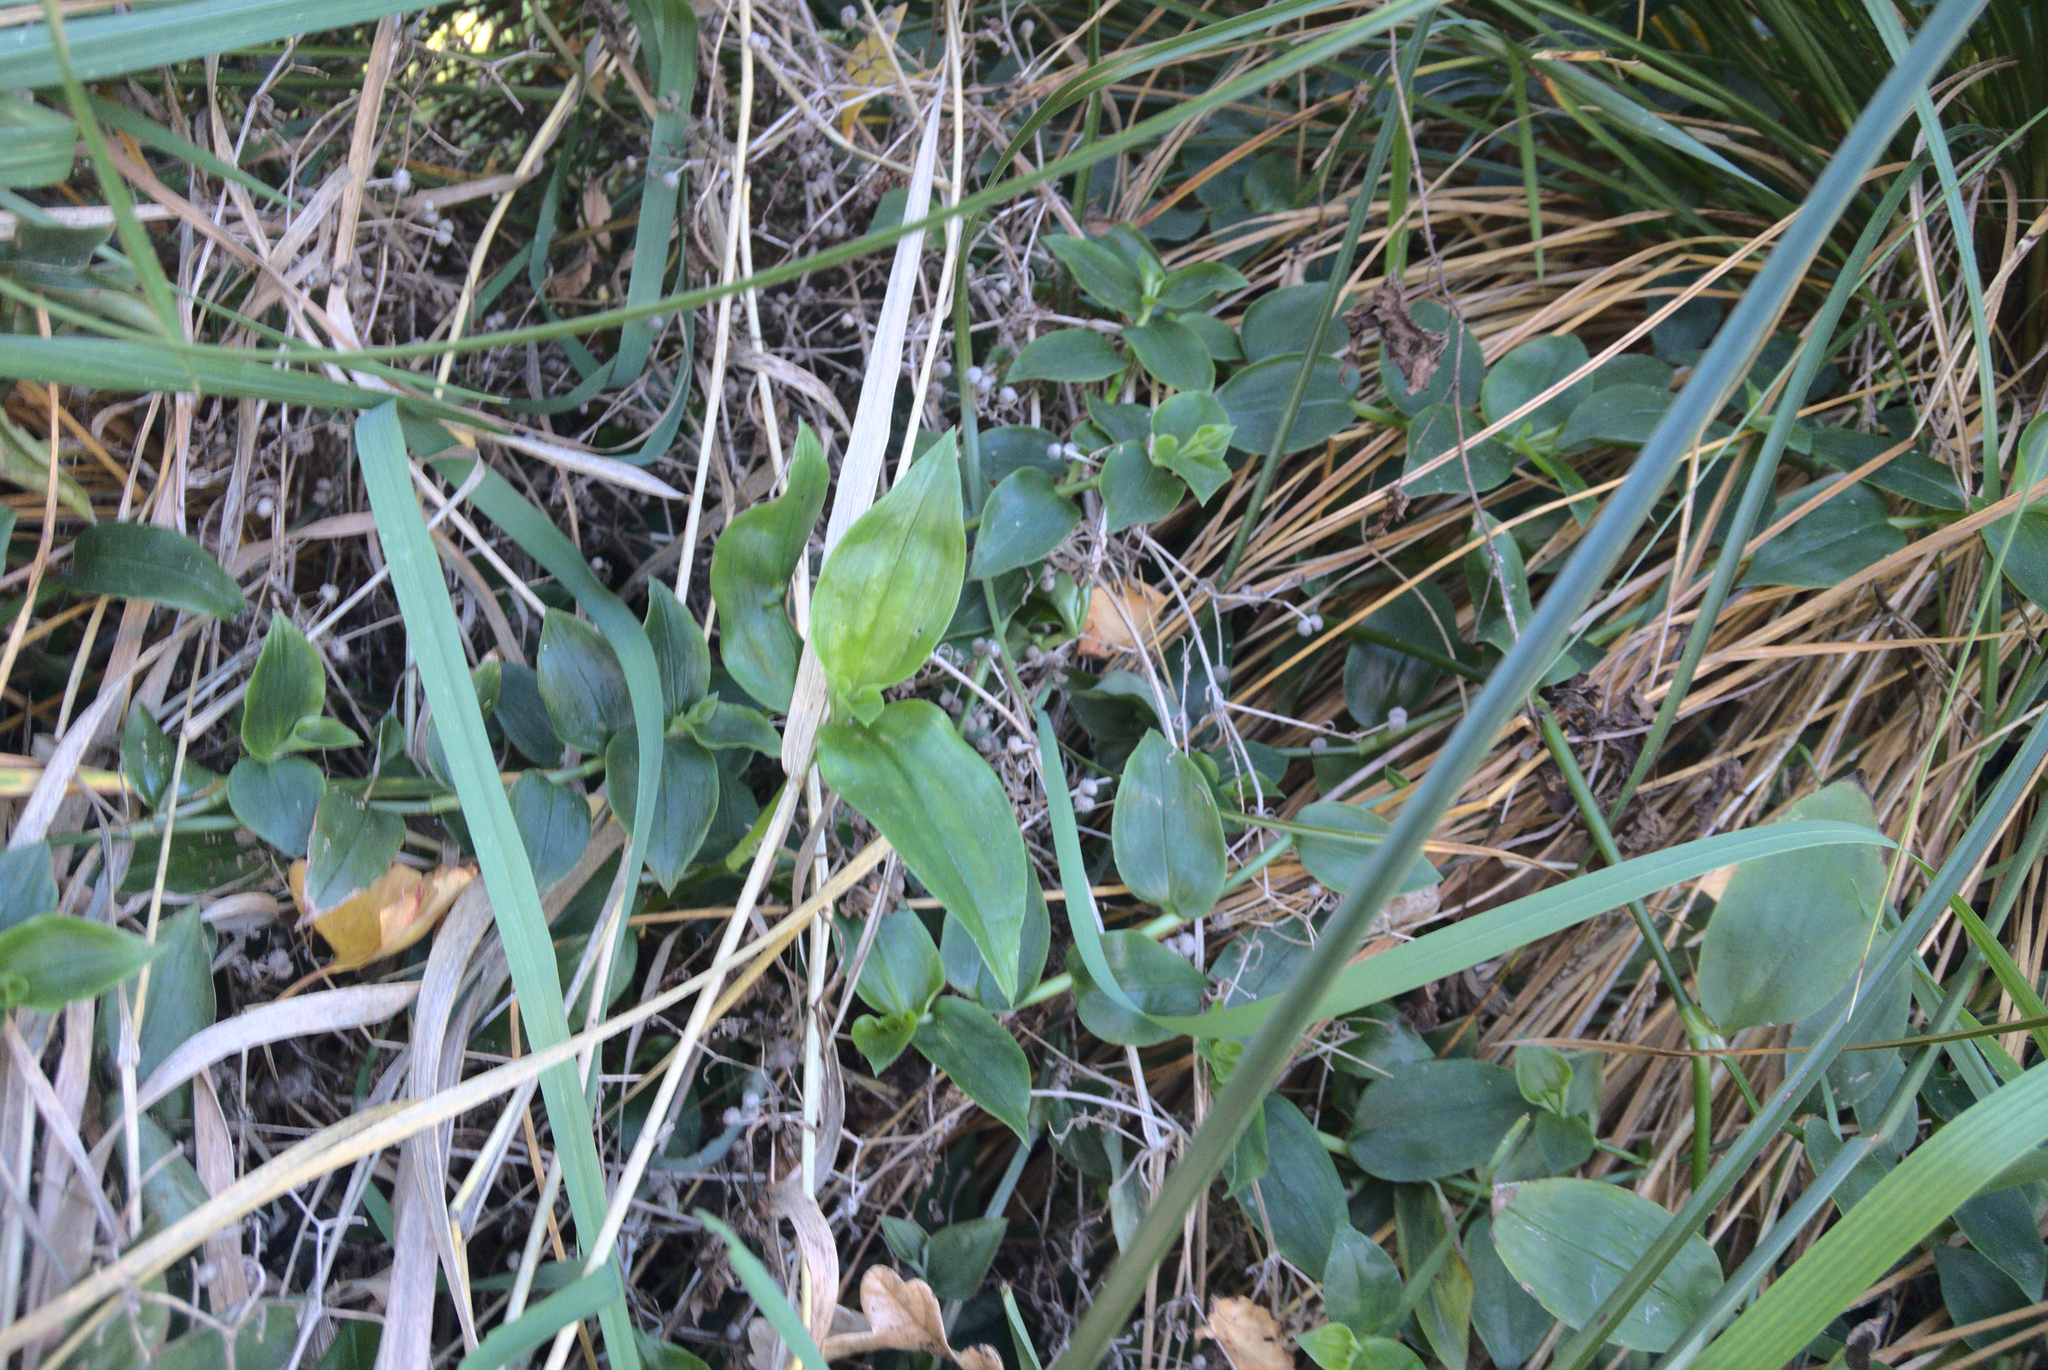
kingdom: Plantae
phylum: Tracheophyta
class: Liliopsida
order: Commelinales
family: Commelinaceae
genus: Tradescantia
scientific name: Tradescantia fluminensis
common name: Wandering-jew
